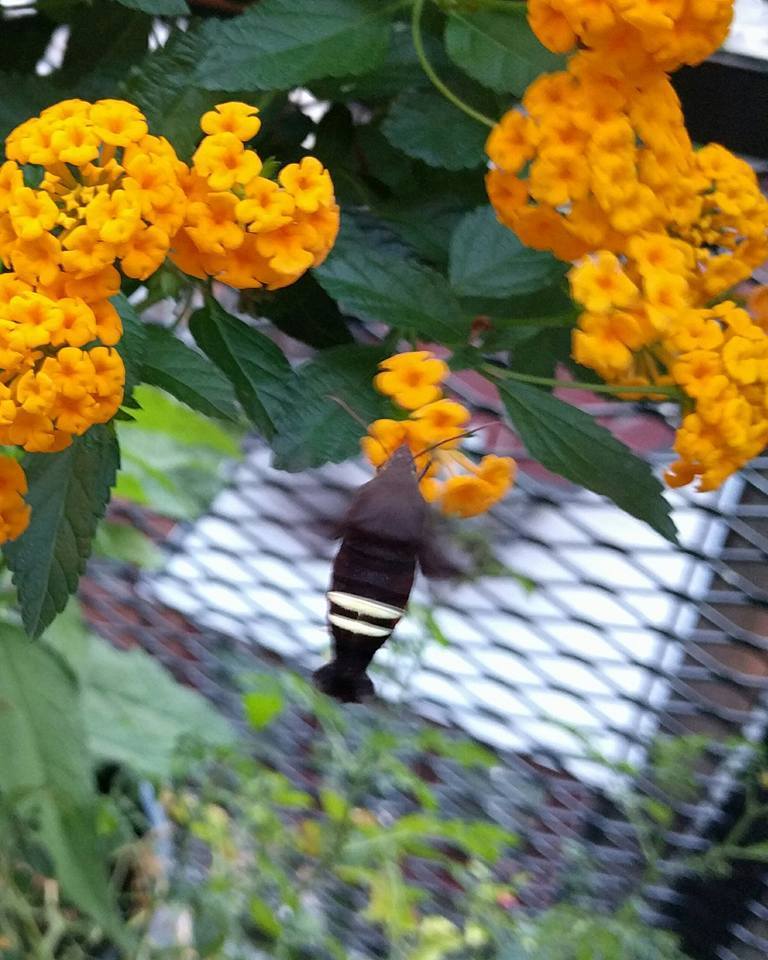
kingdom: Animalia
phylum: Arthropoda
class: Insecta
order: Lepidoptera
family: Sphingidae
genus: Amphion
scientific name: Amphion floridensis
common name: Nessus sphinx
